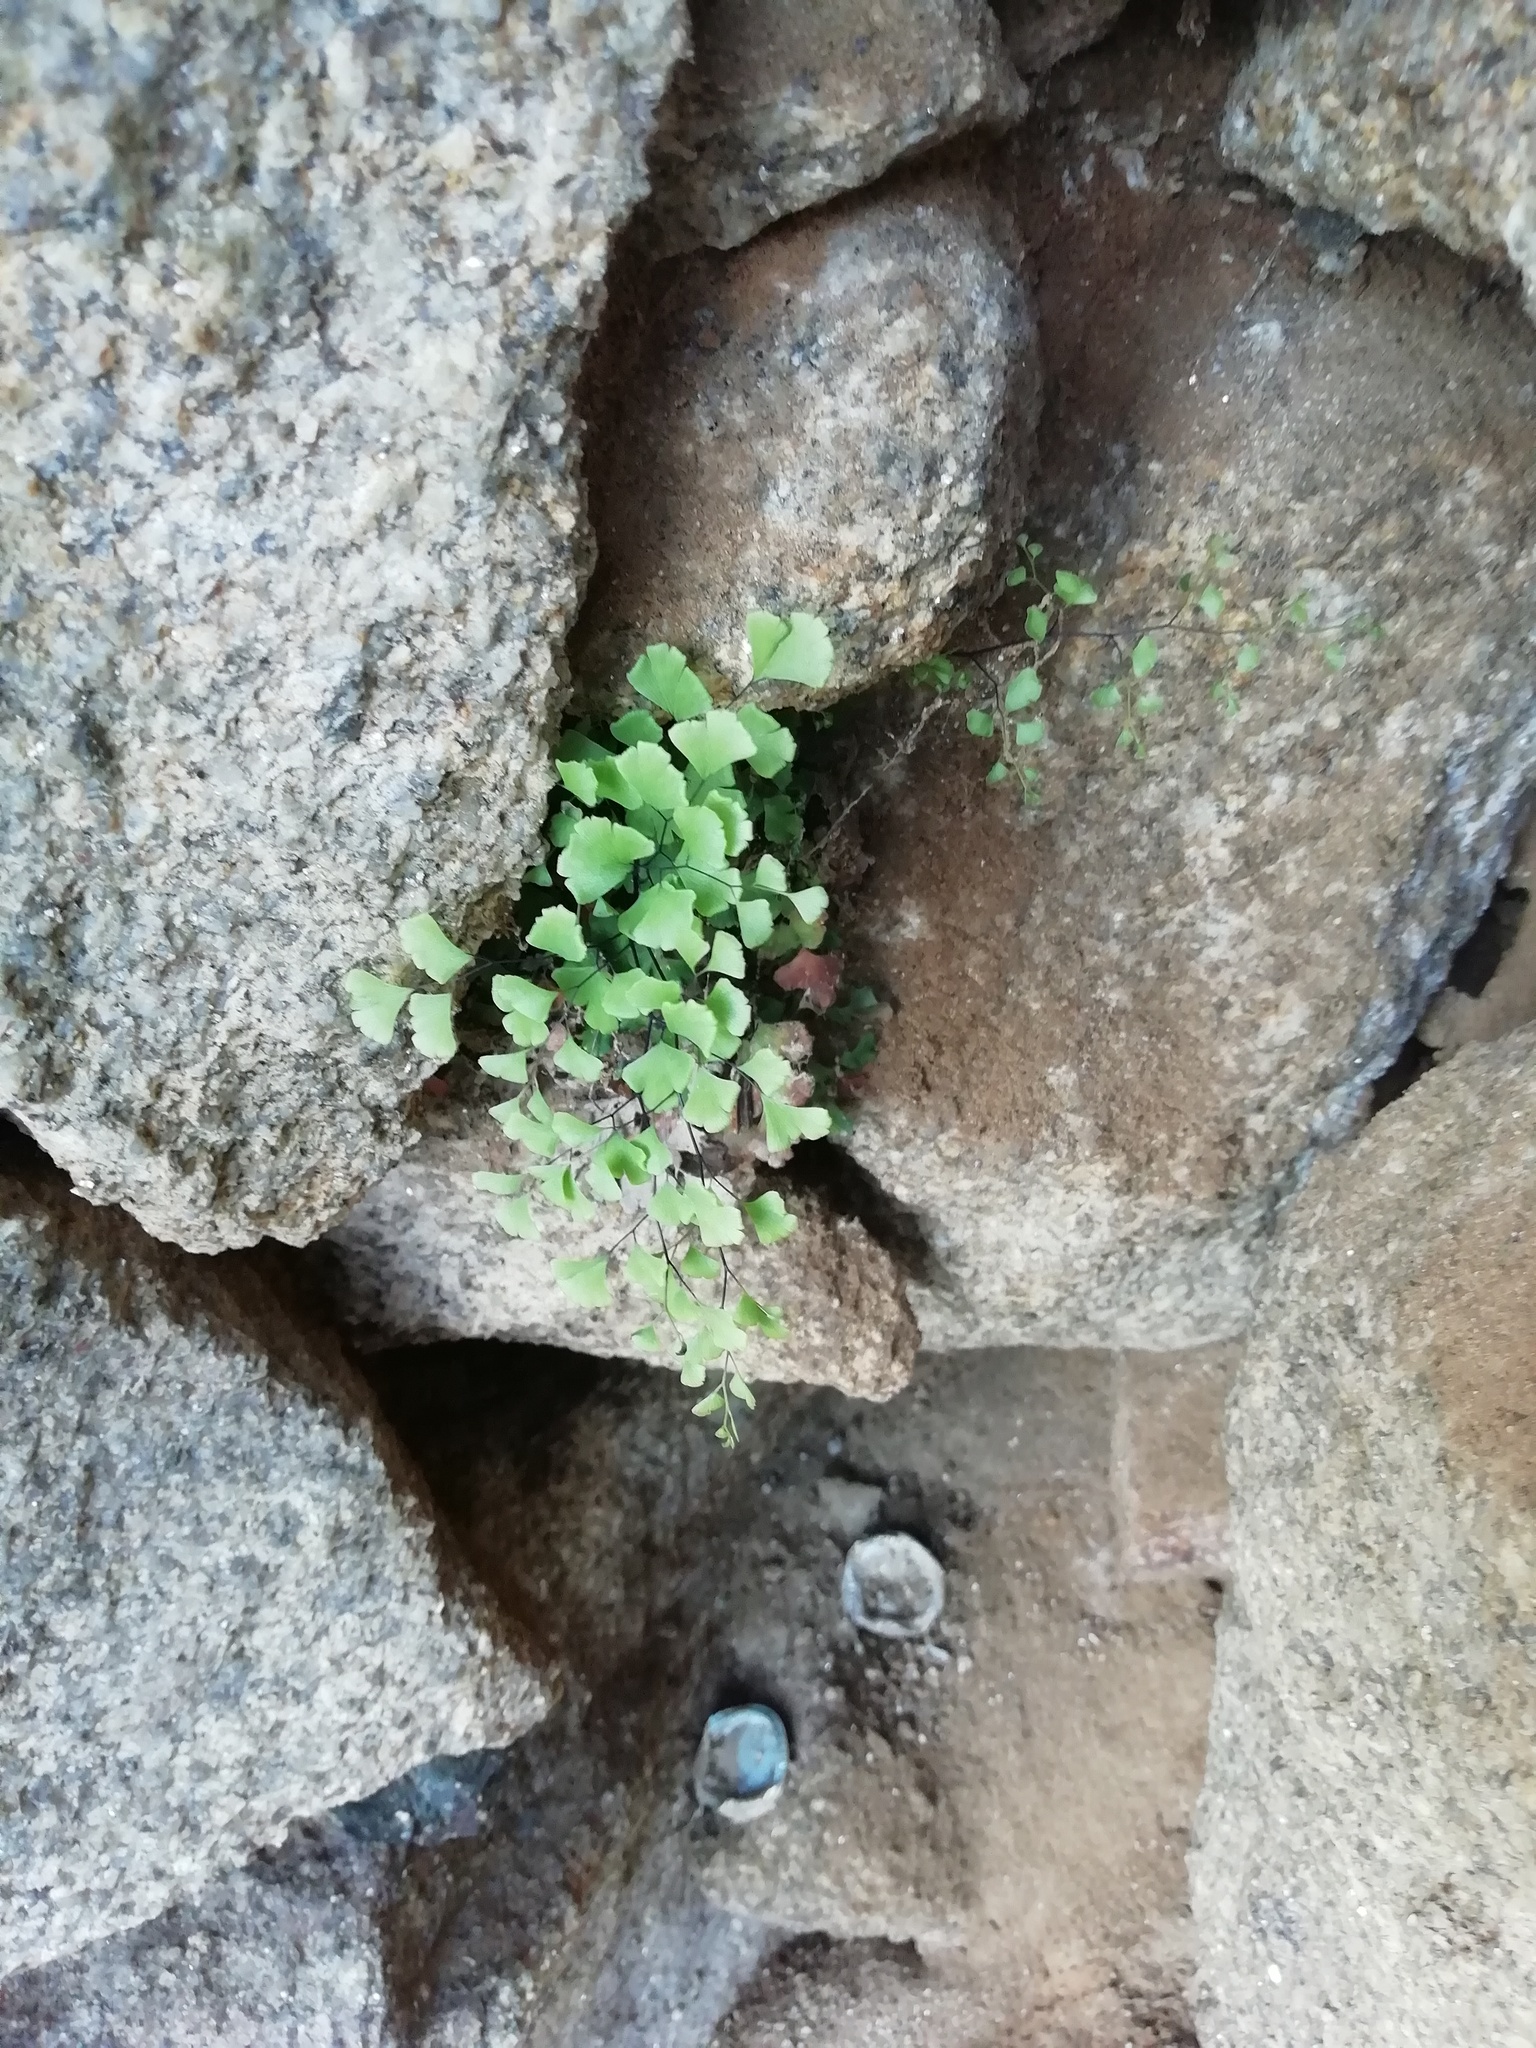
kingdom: Plantae
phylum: Tracheophyta
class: Polypodiopsida
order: Polypodiales
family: Pteridaceae
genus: Adiantum
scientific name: Adiantum capillus-veneris
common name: Maidenhair fern
